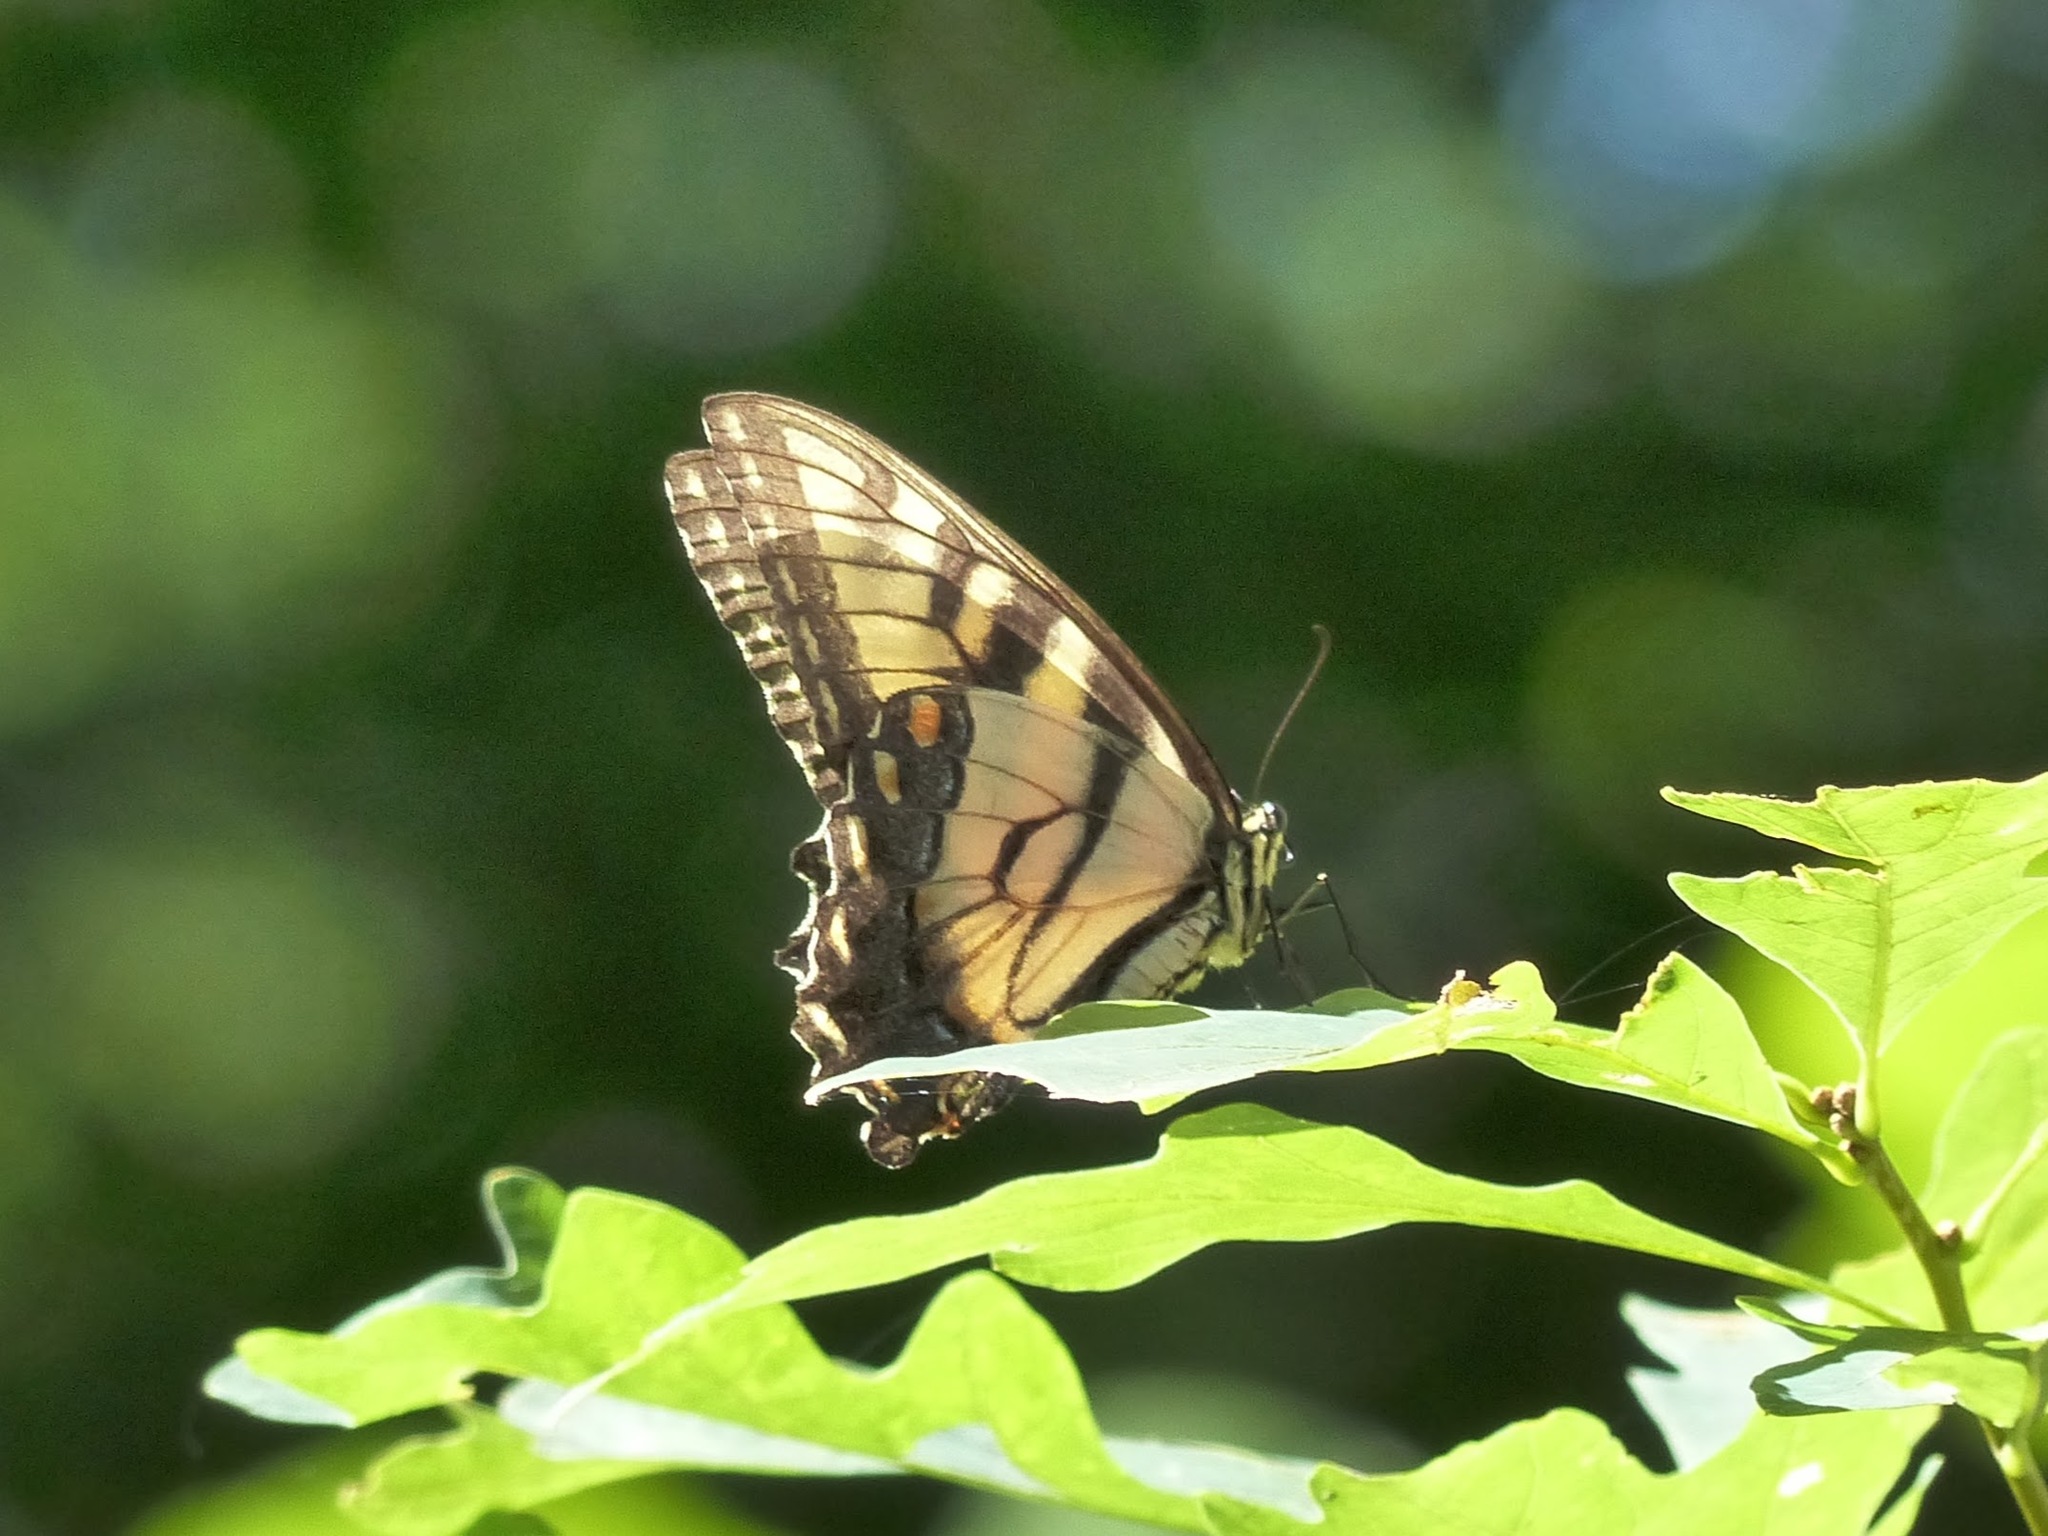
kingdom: Animalia
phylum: Arthropoda
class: Insecta
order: Lepidoptera
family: Papilionidae
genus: Papilio
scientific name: Papilio glaucus
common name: Tiger swallowtail
